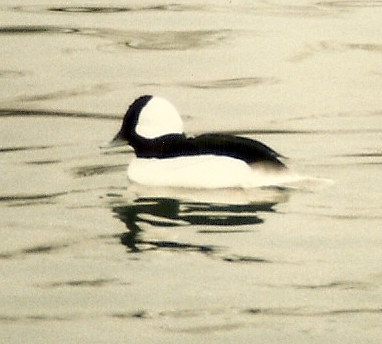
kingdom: Animalia
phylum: Chordata
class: Aves
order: Anseriformes
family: Anatidae
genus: Bucephala
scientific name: Bucephala albeola
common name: Bufflehead
